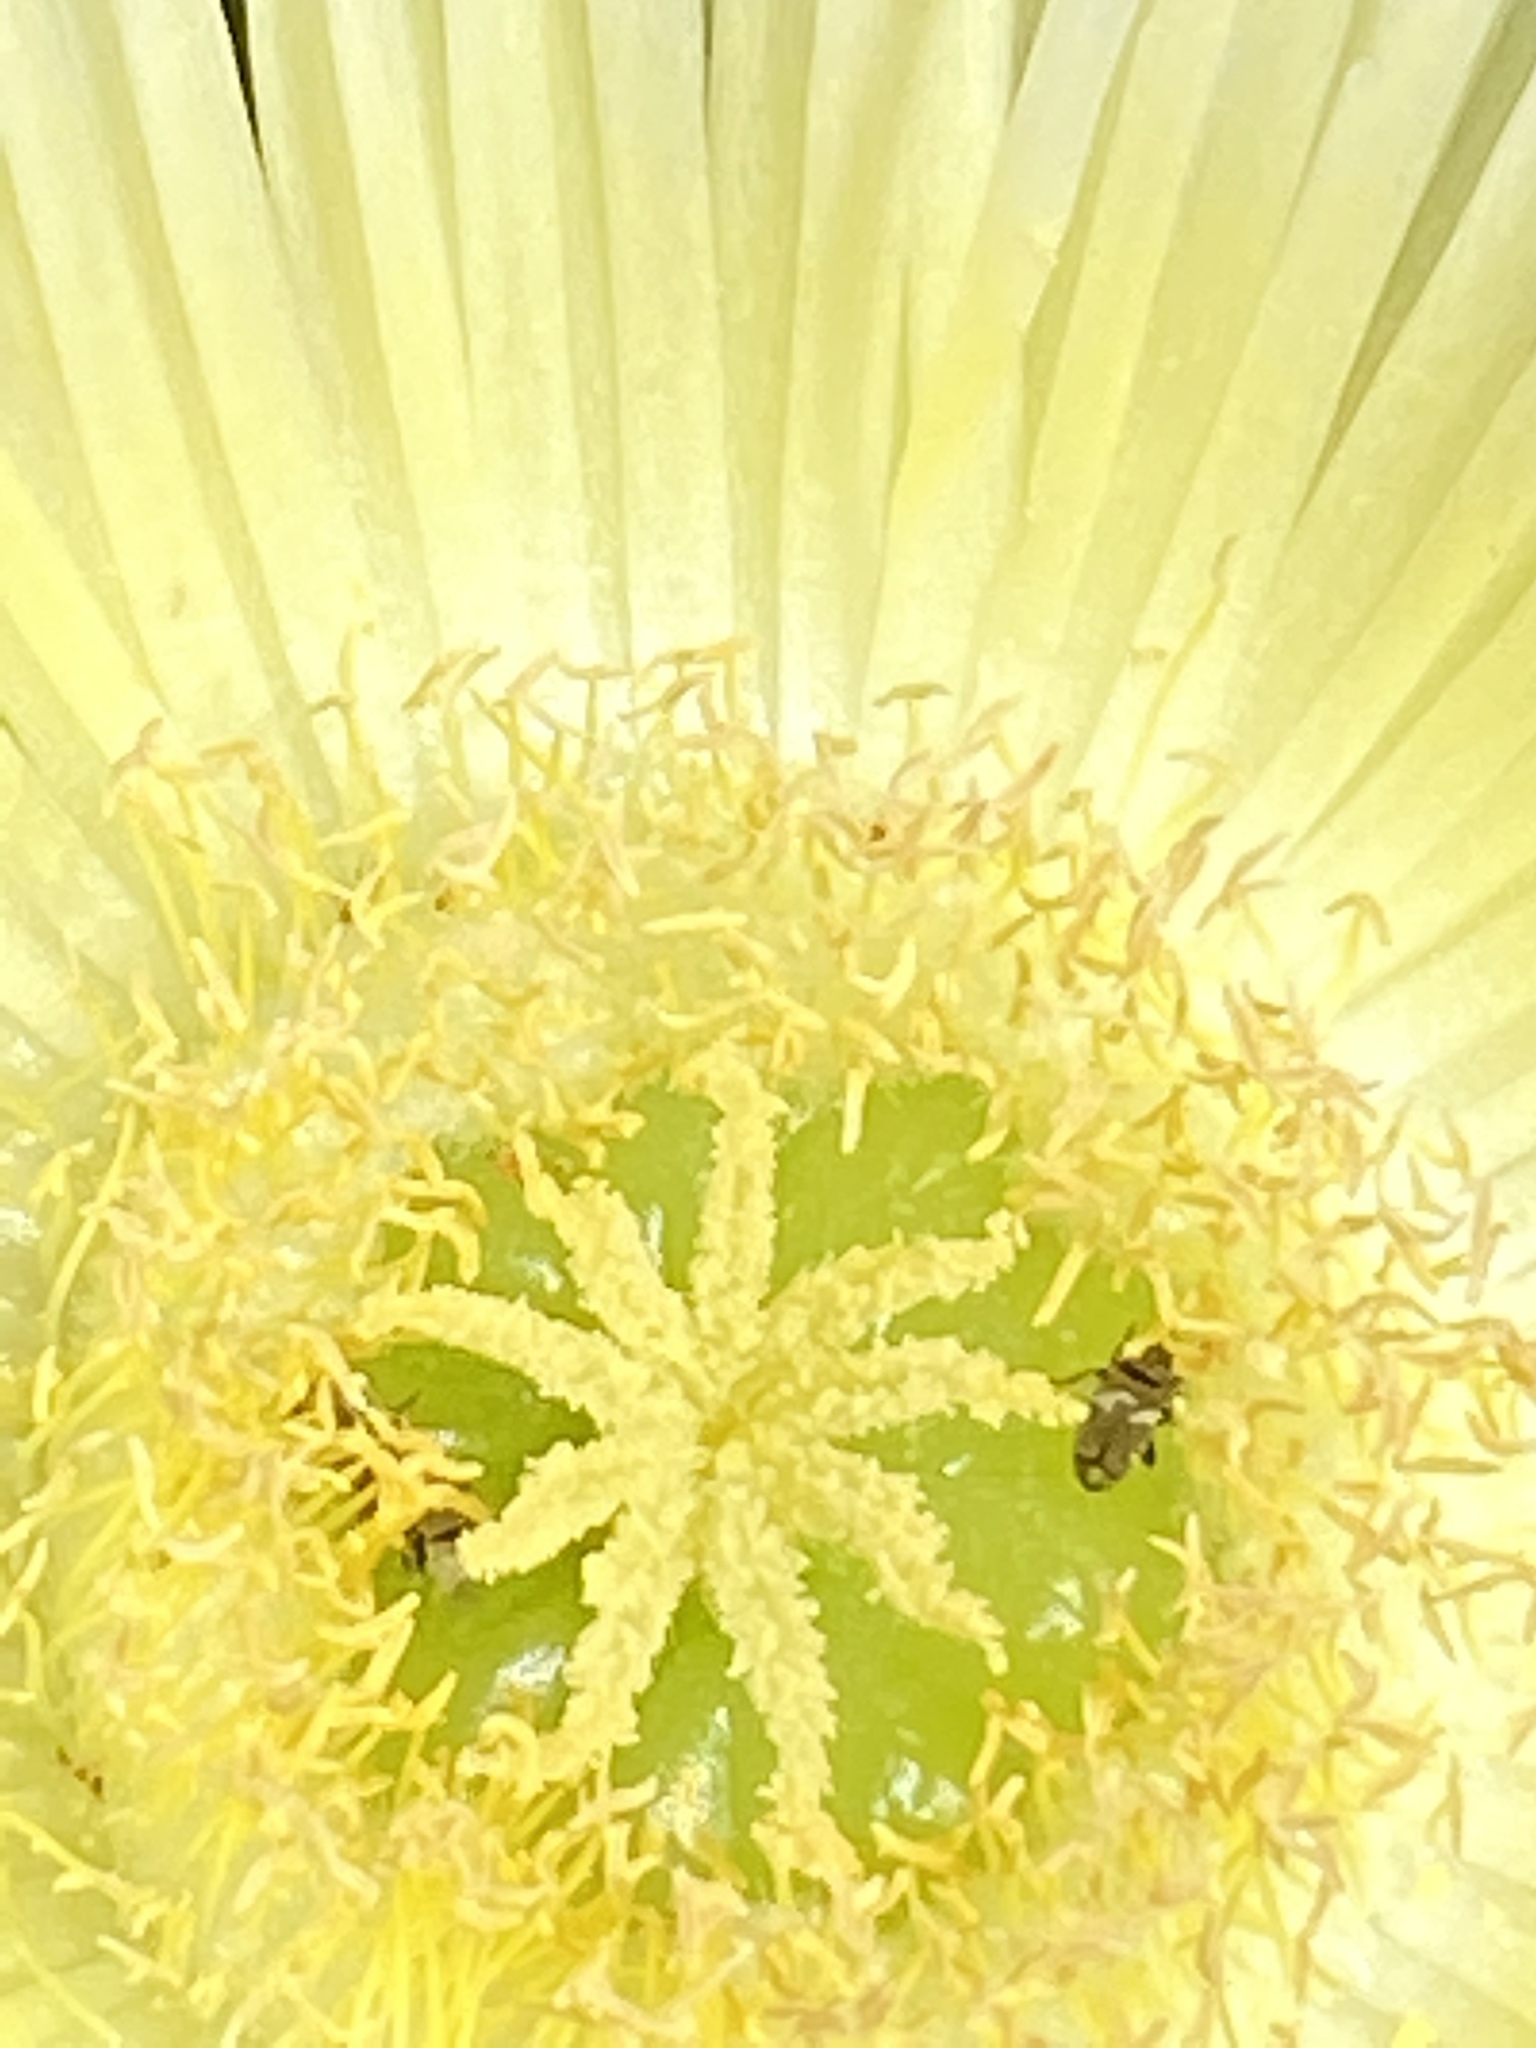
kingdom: Plantae
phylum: Tracheophyta
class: Magnoliopsida
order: Caryophyllales
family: Aizoaceae
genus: Carpobrotus
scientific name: Carpobrotus edulis
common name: Hottentot-fig
